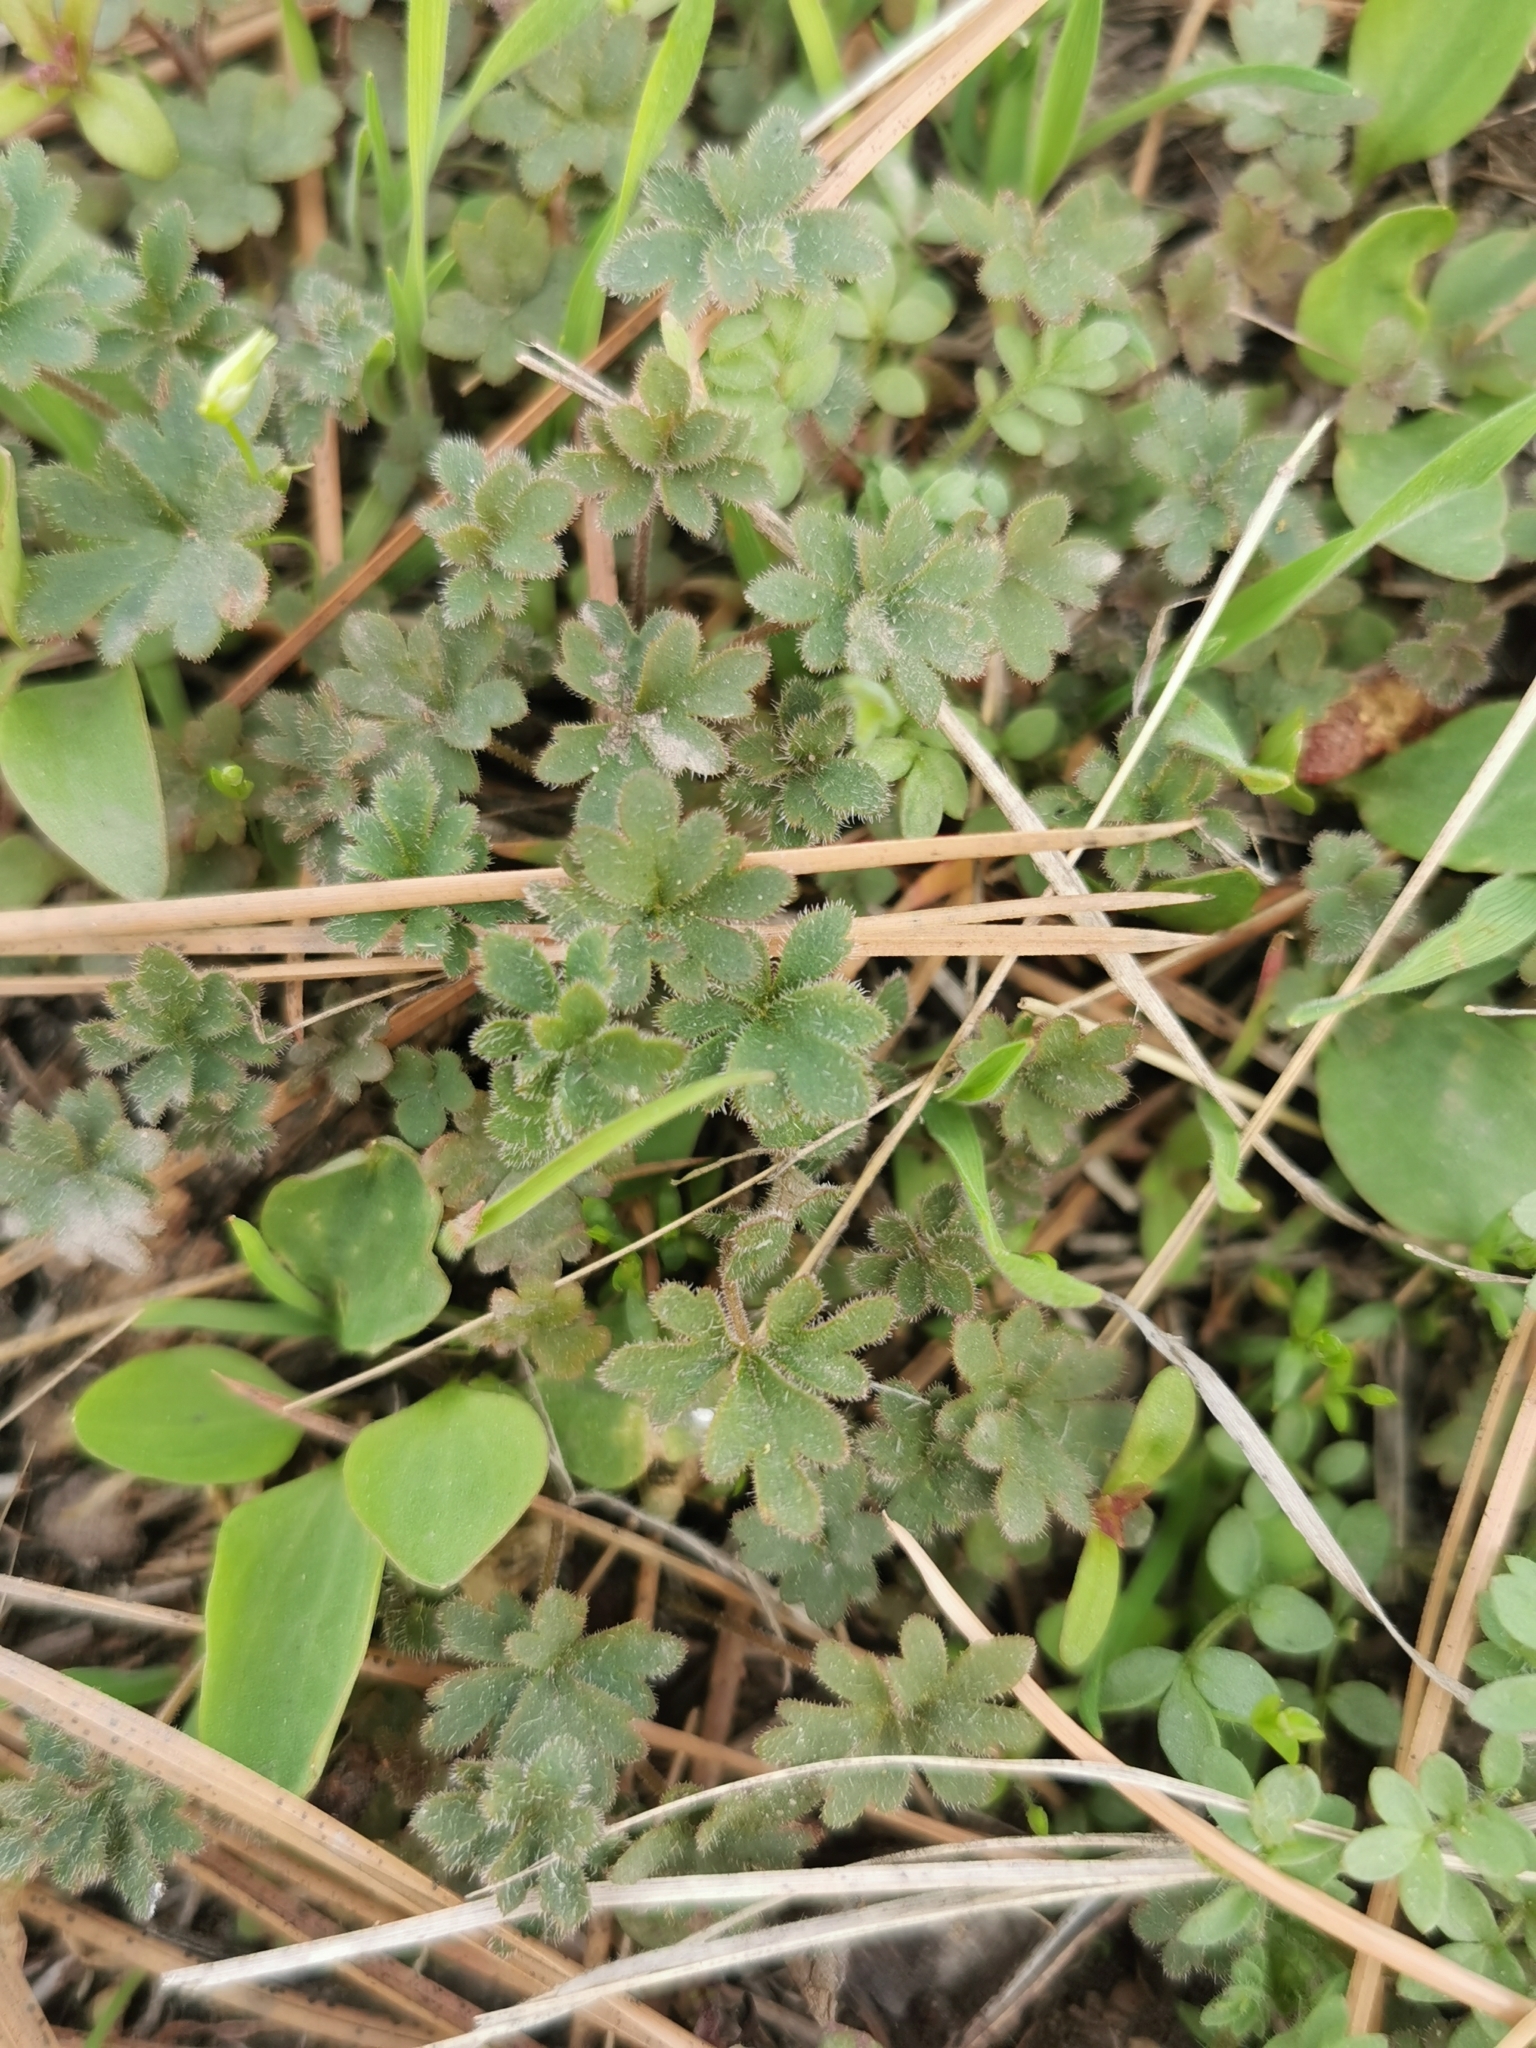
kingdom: Plantae
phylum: Tracheophyta
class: Magnoliopsida
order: Saxifragales
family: Saxifragaceae
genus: Lithophragma
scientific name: Lithophragma glabrum
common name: Bulbous prairie-star
